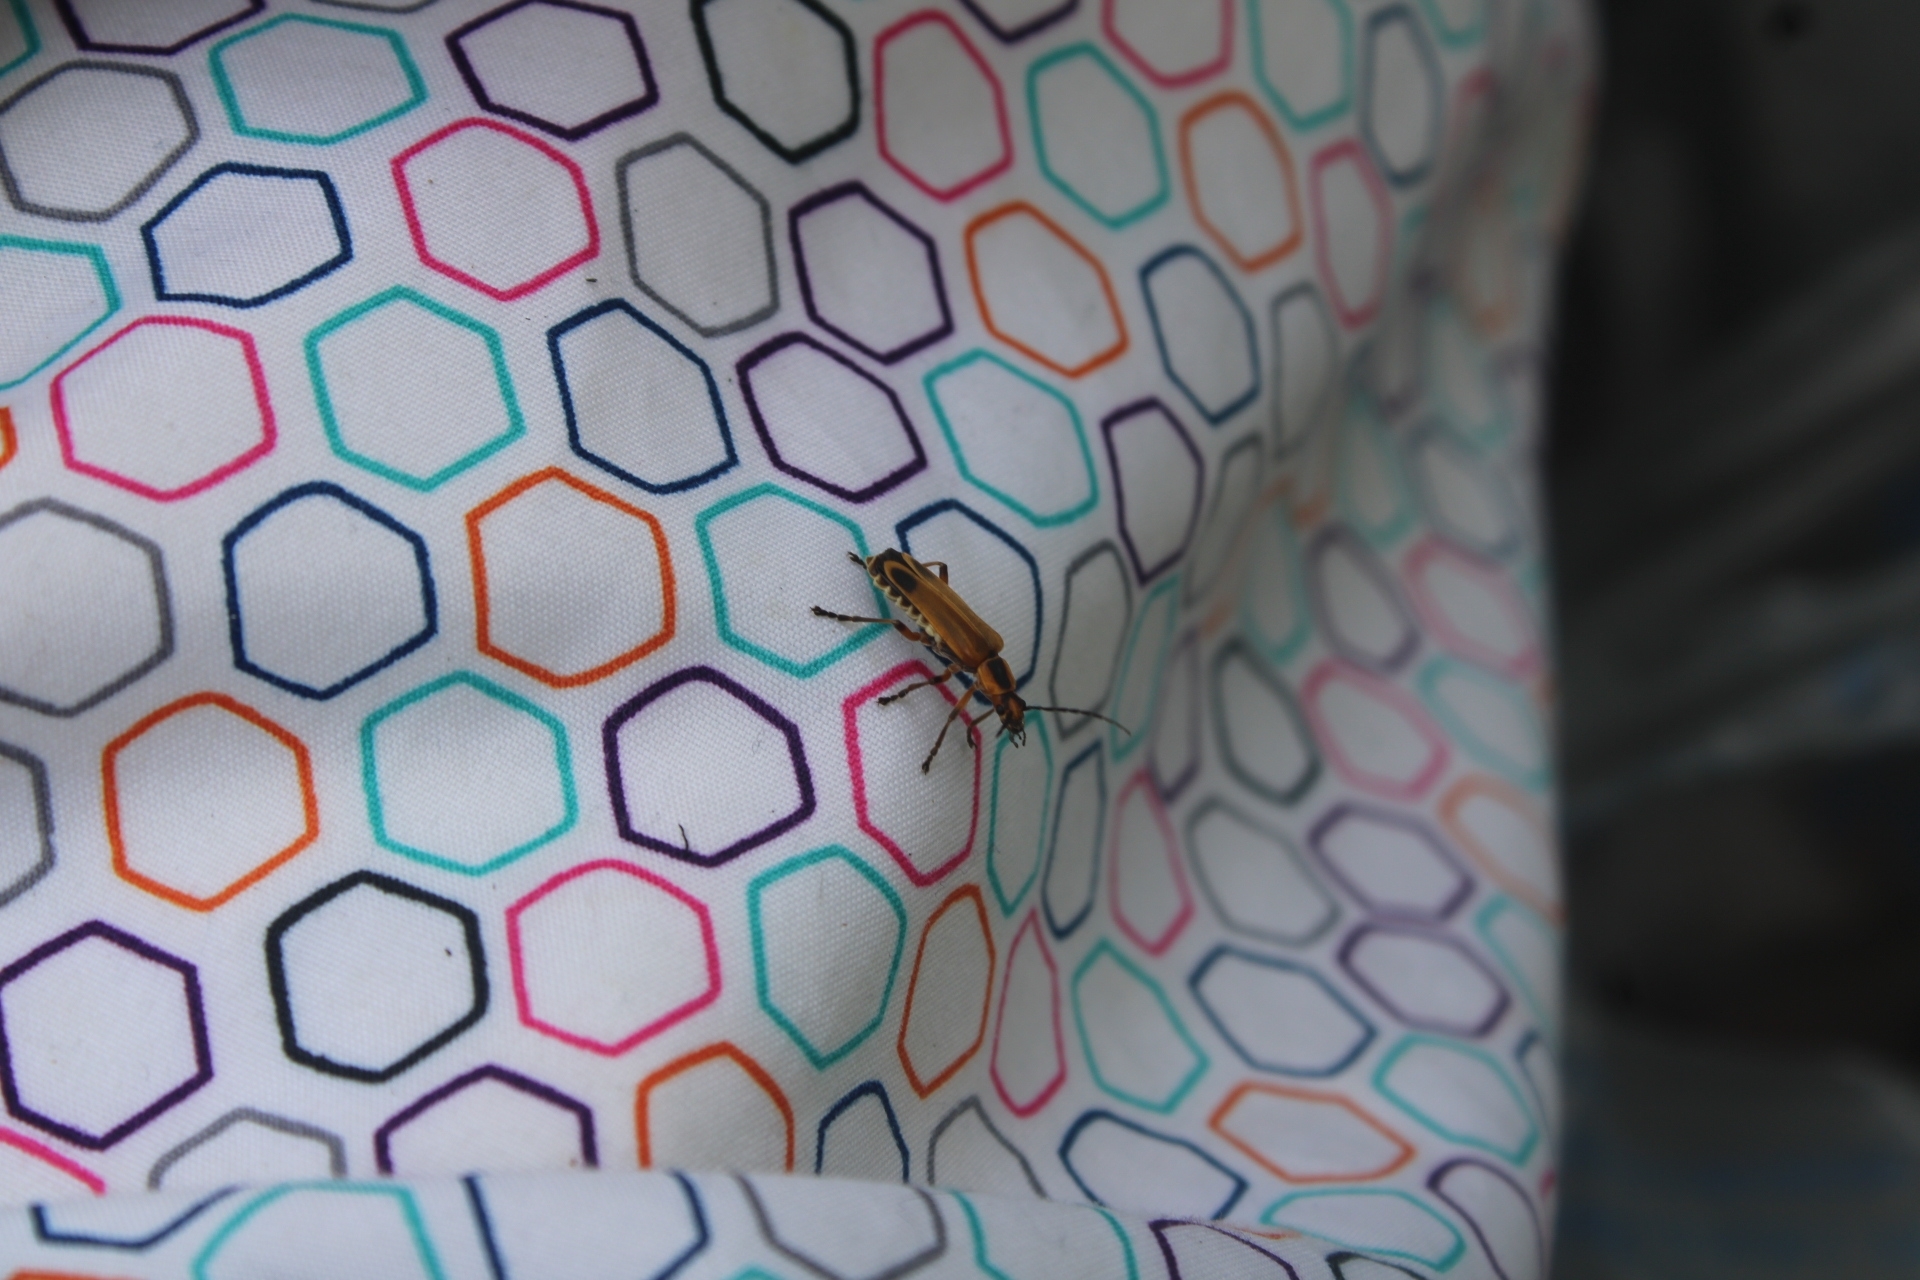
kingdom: Animalia
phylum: Arthropoda
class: Insecta
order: Coleoptera
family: Cantharidae
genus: Chauliognathus
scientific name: Chauliognathus marginatus
